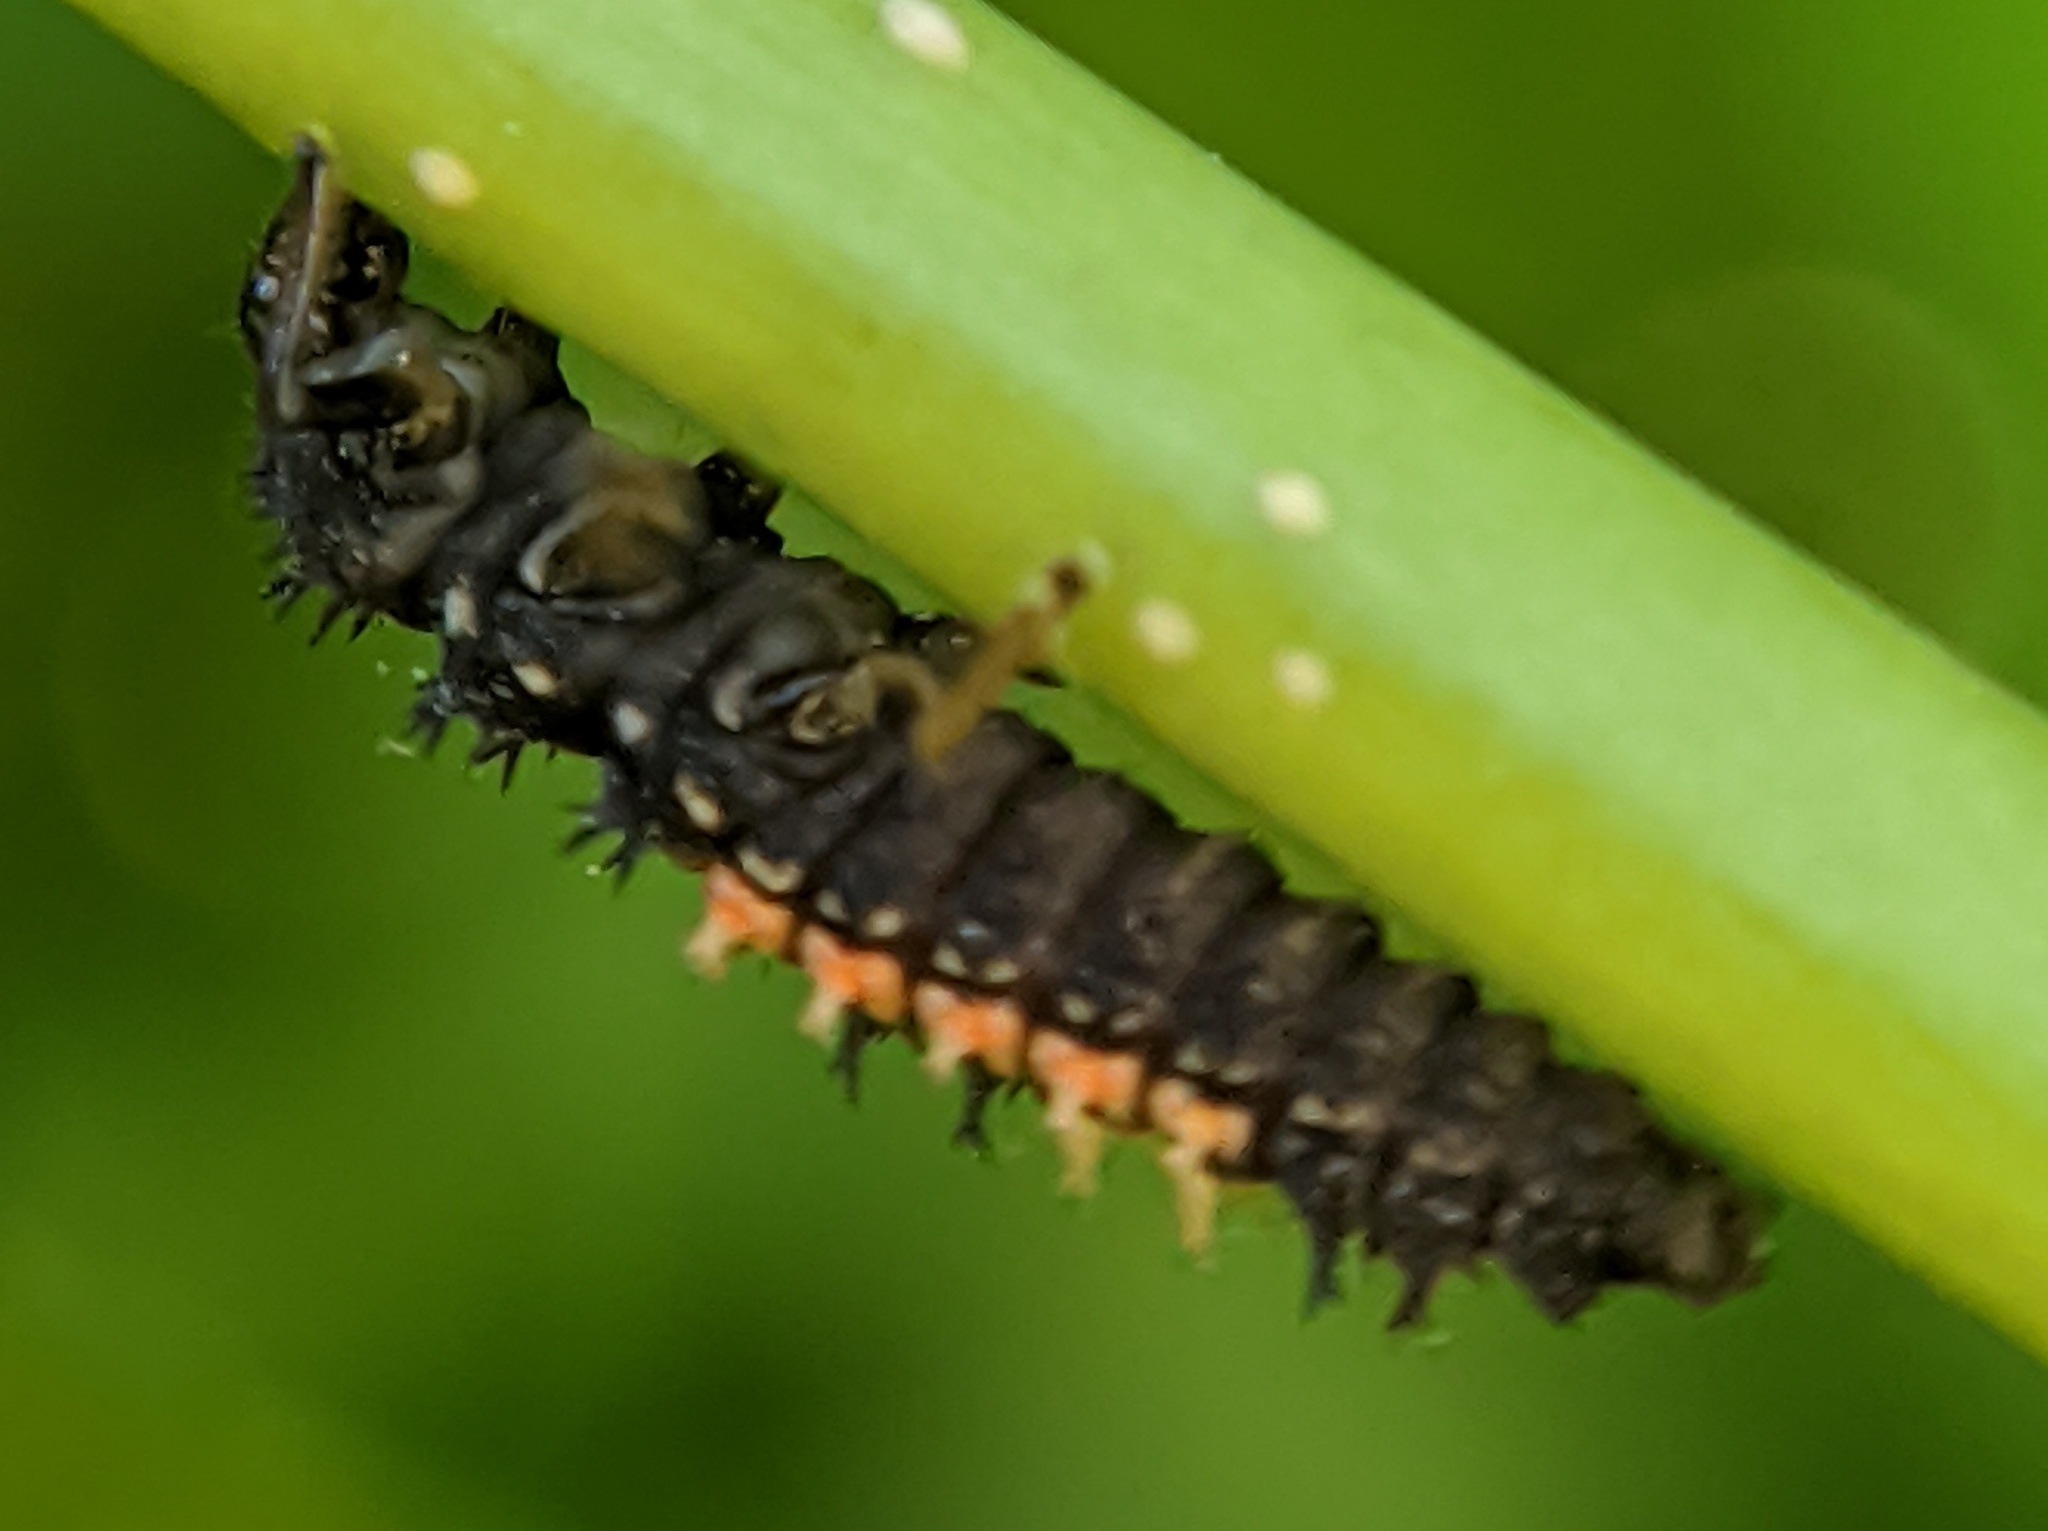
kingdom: Animalia
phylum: Arthropoda
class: Insecta
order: Coleoptera
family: Coccinellidae
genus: Harmonia
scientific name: Harmonia axyridis
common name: Harlequin ladybird
